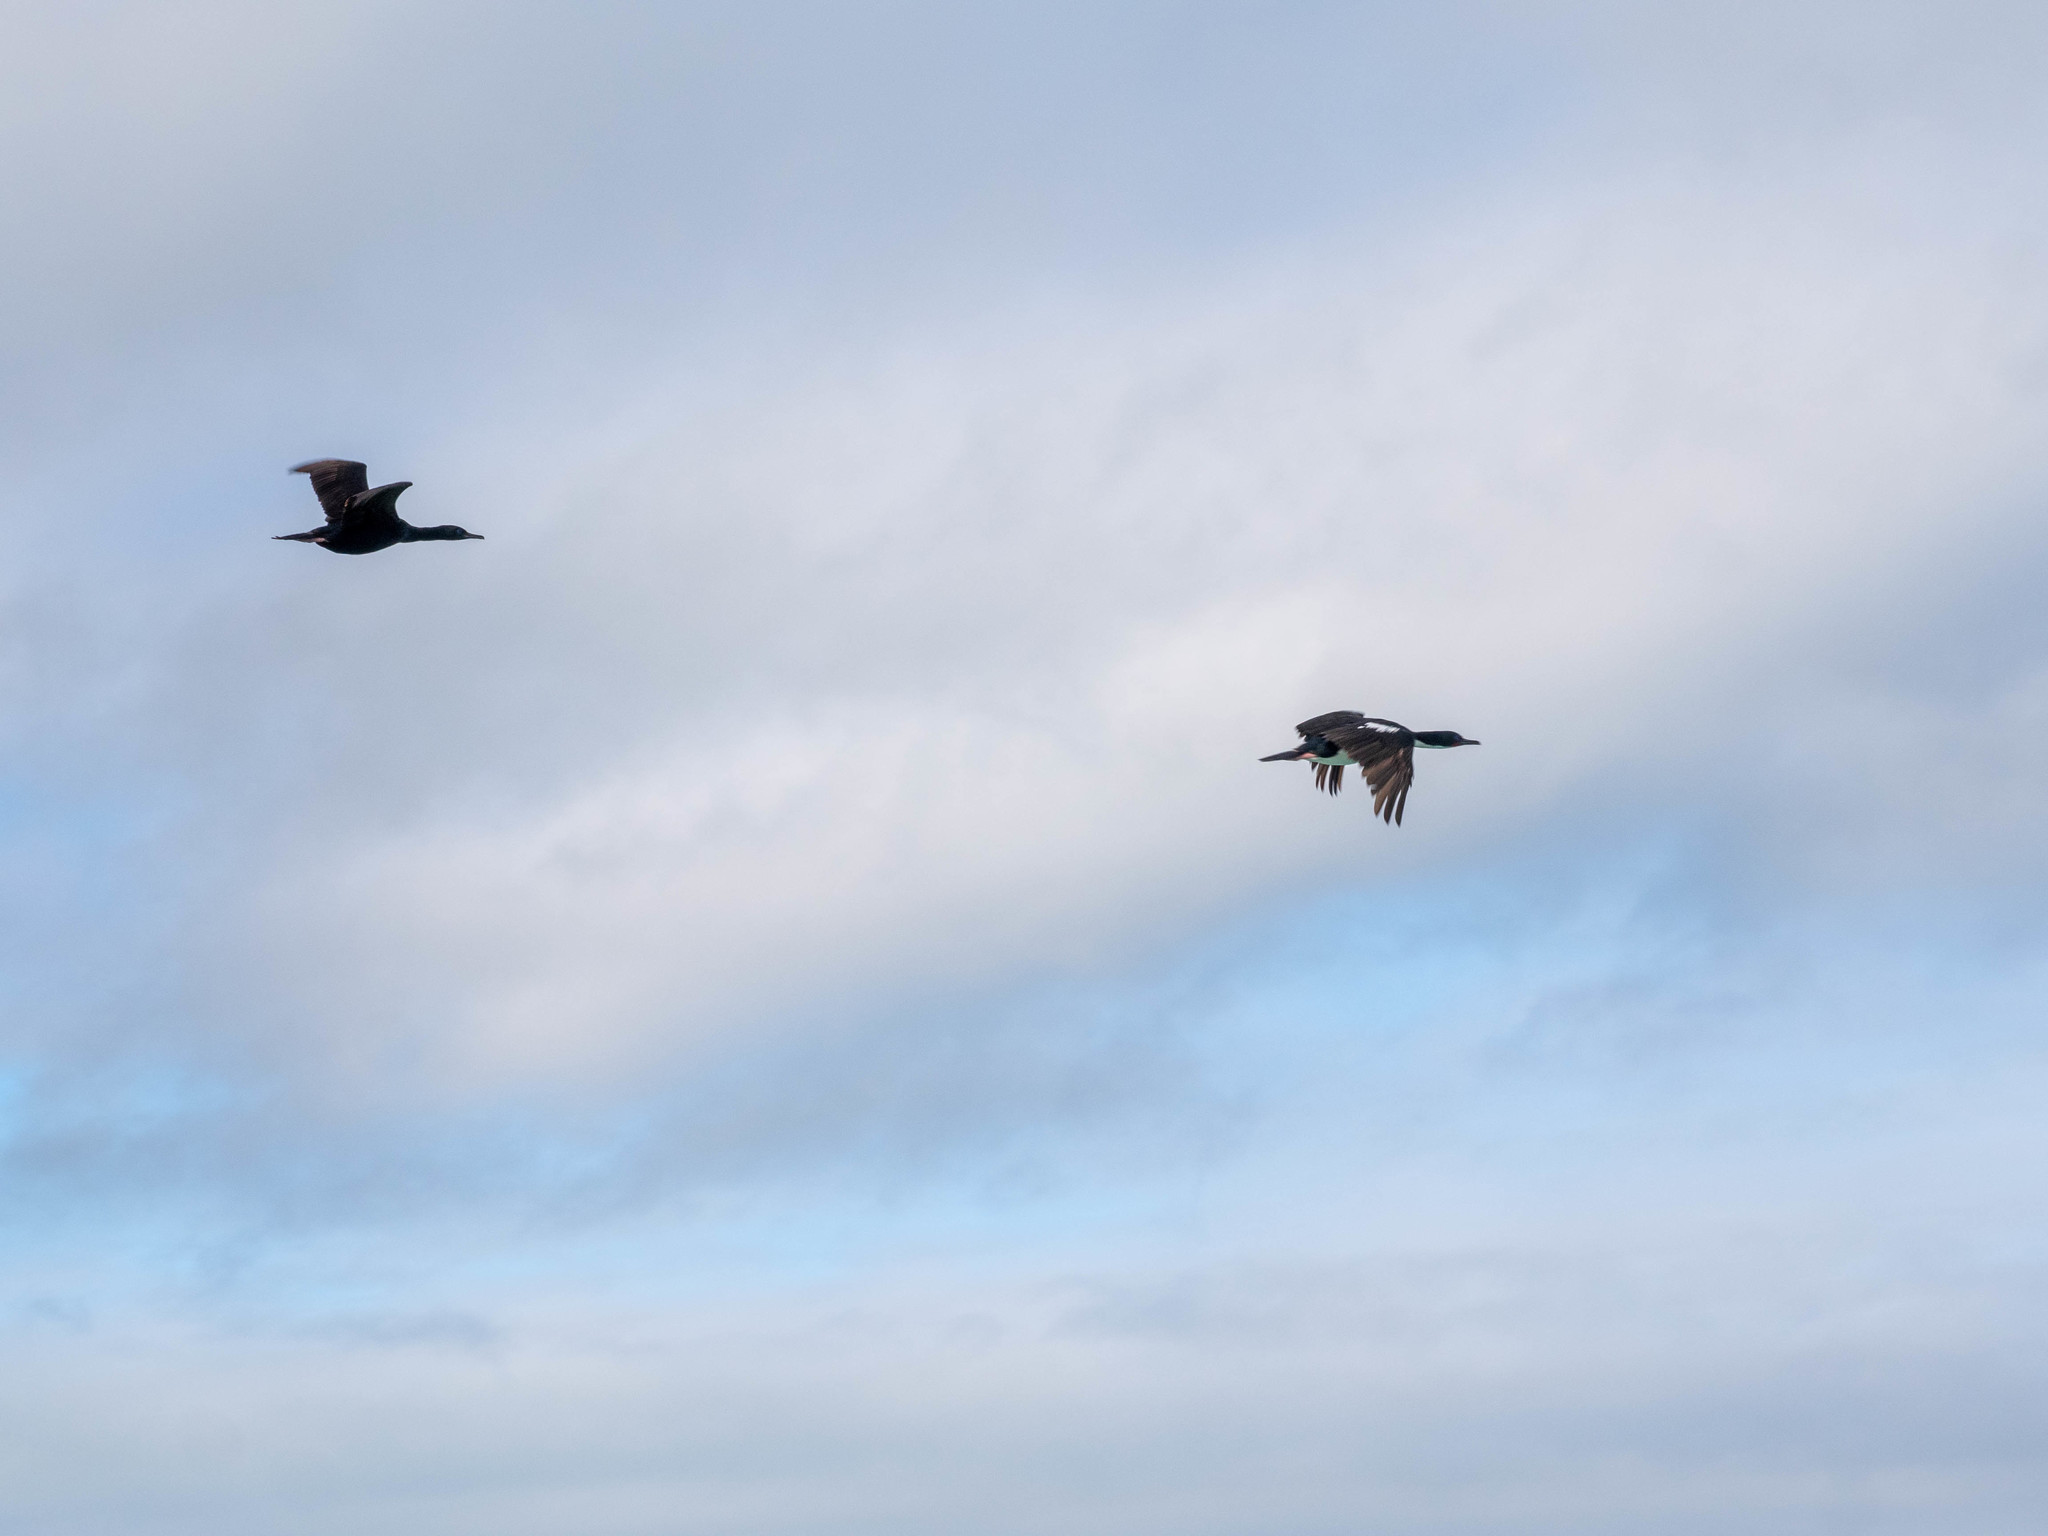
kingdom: Animalia
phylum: Chordata
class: Aves
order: Suliformes
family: Phalacrocoracidae
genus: Leucocarbo
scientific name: Leucocarbo chalconotus
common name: Stewart shag
